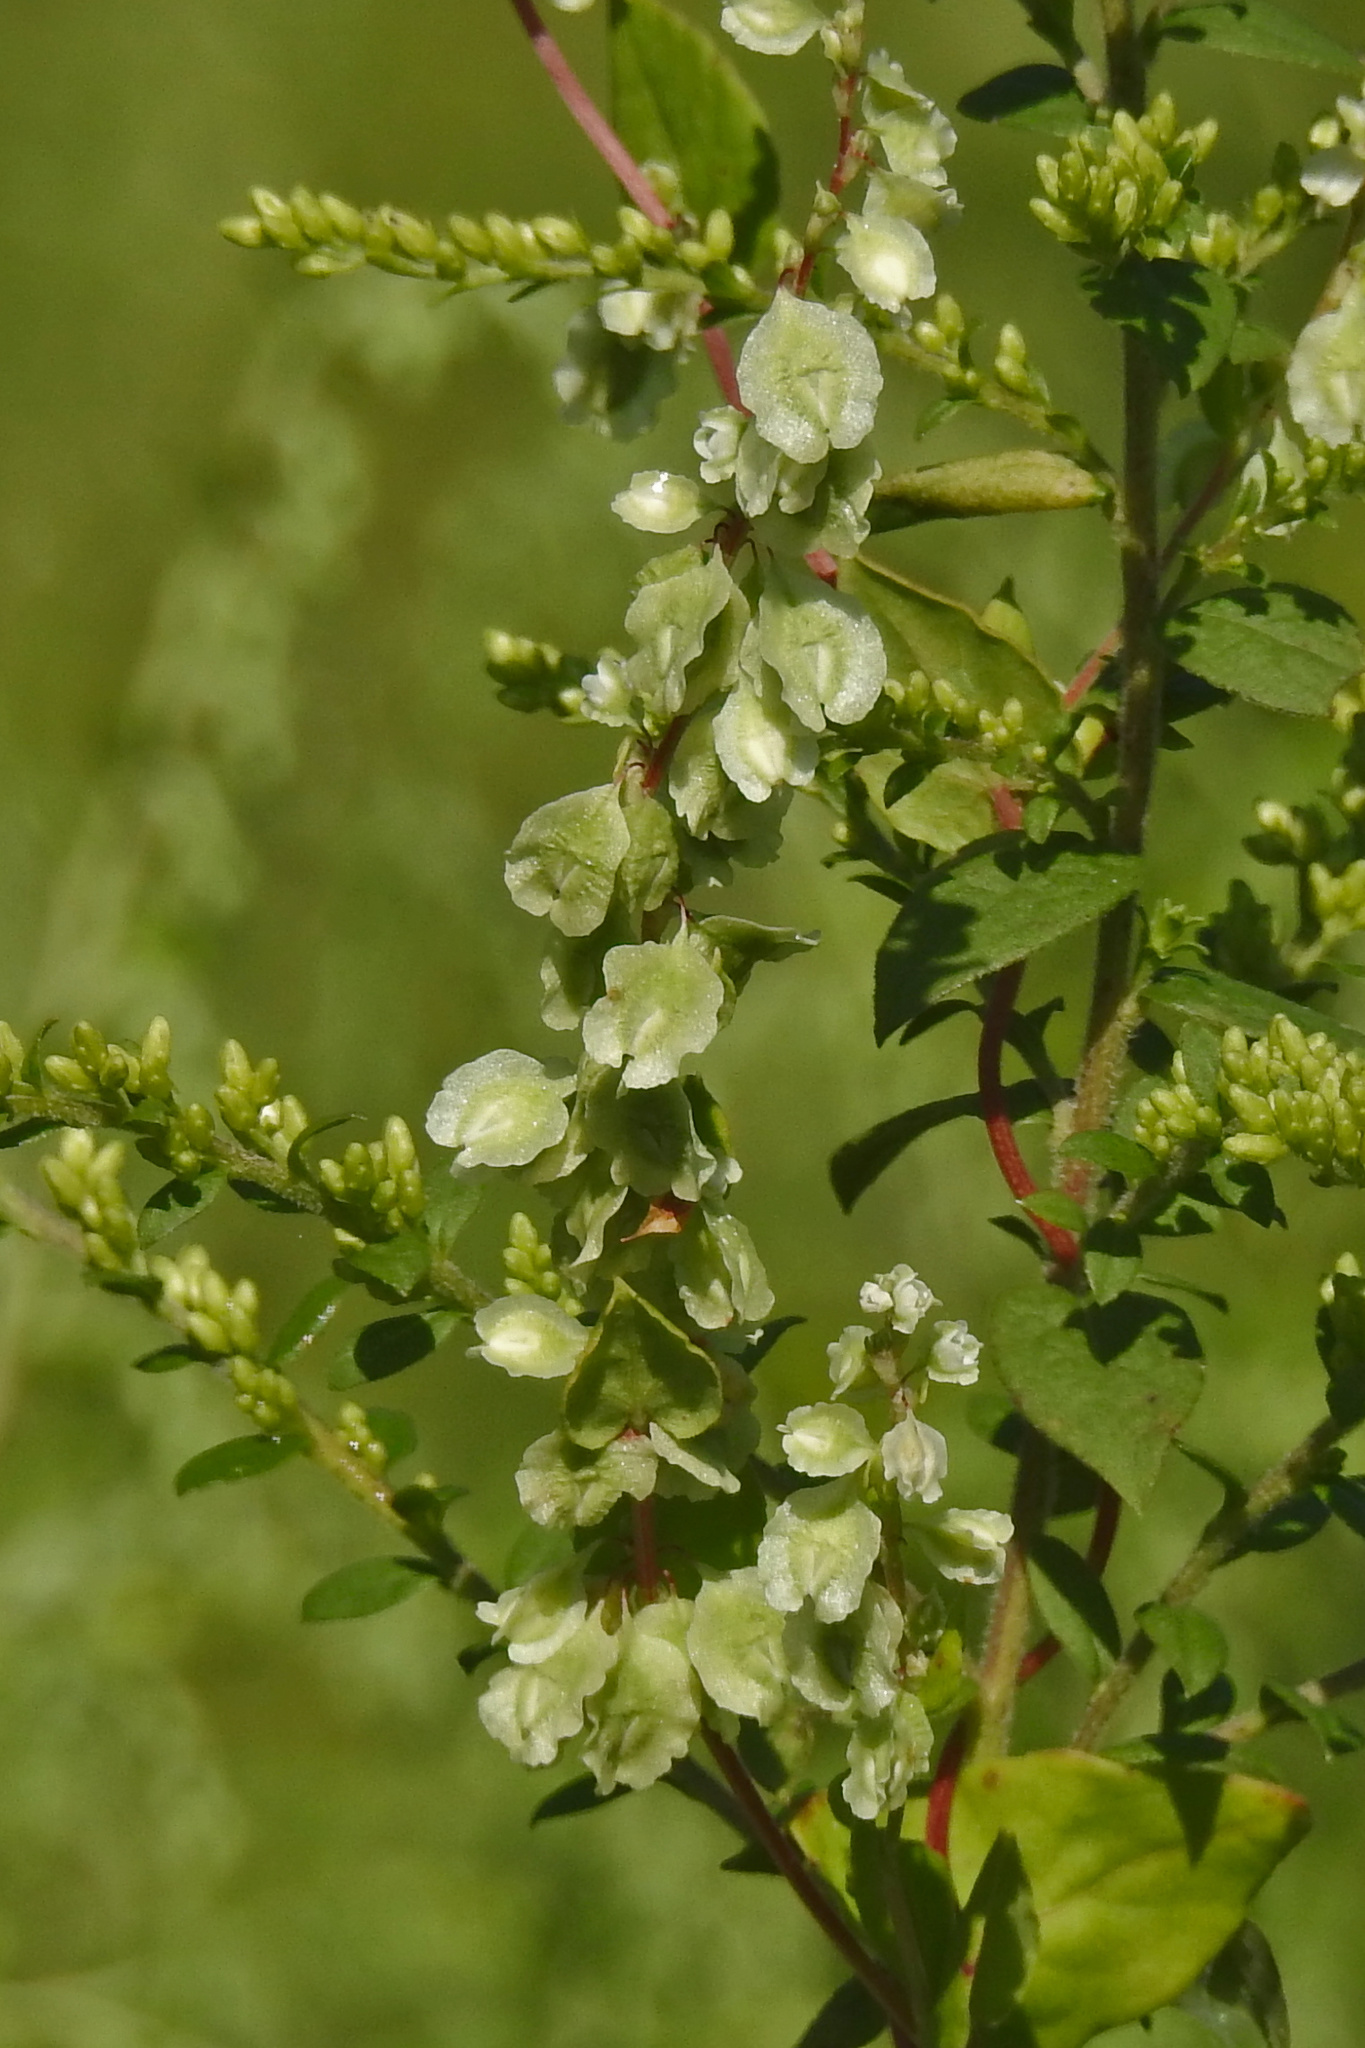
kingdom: Plantae
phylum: Tracheophyta
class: Magnoliopsida
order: Caryophyllales
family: Polygonaceae
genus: Fallopia
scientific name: Fallopia scandens
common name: Climbing false buckwheat
